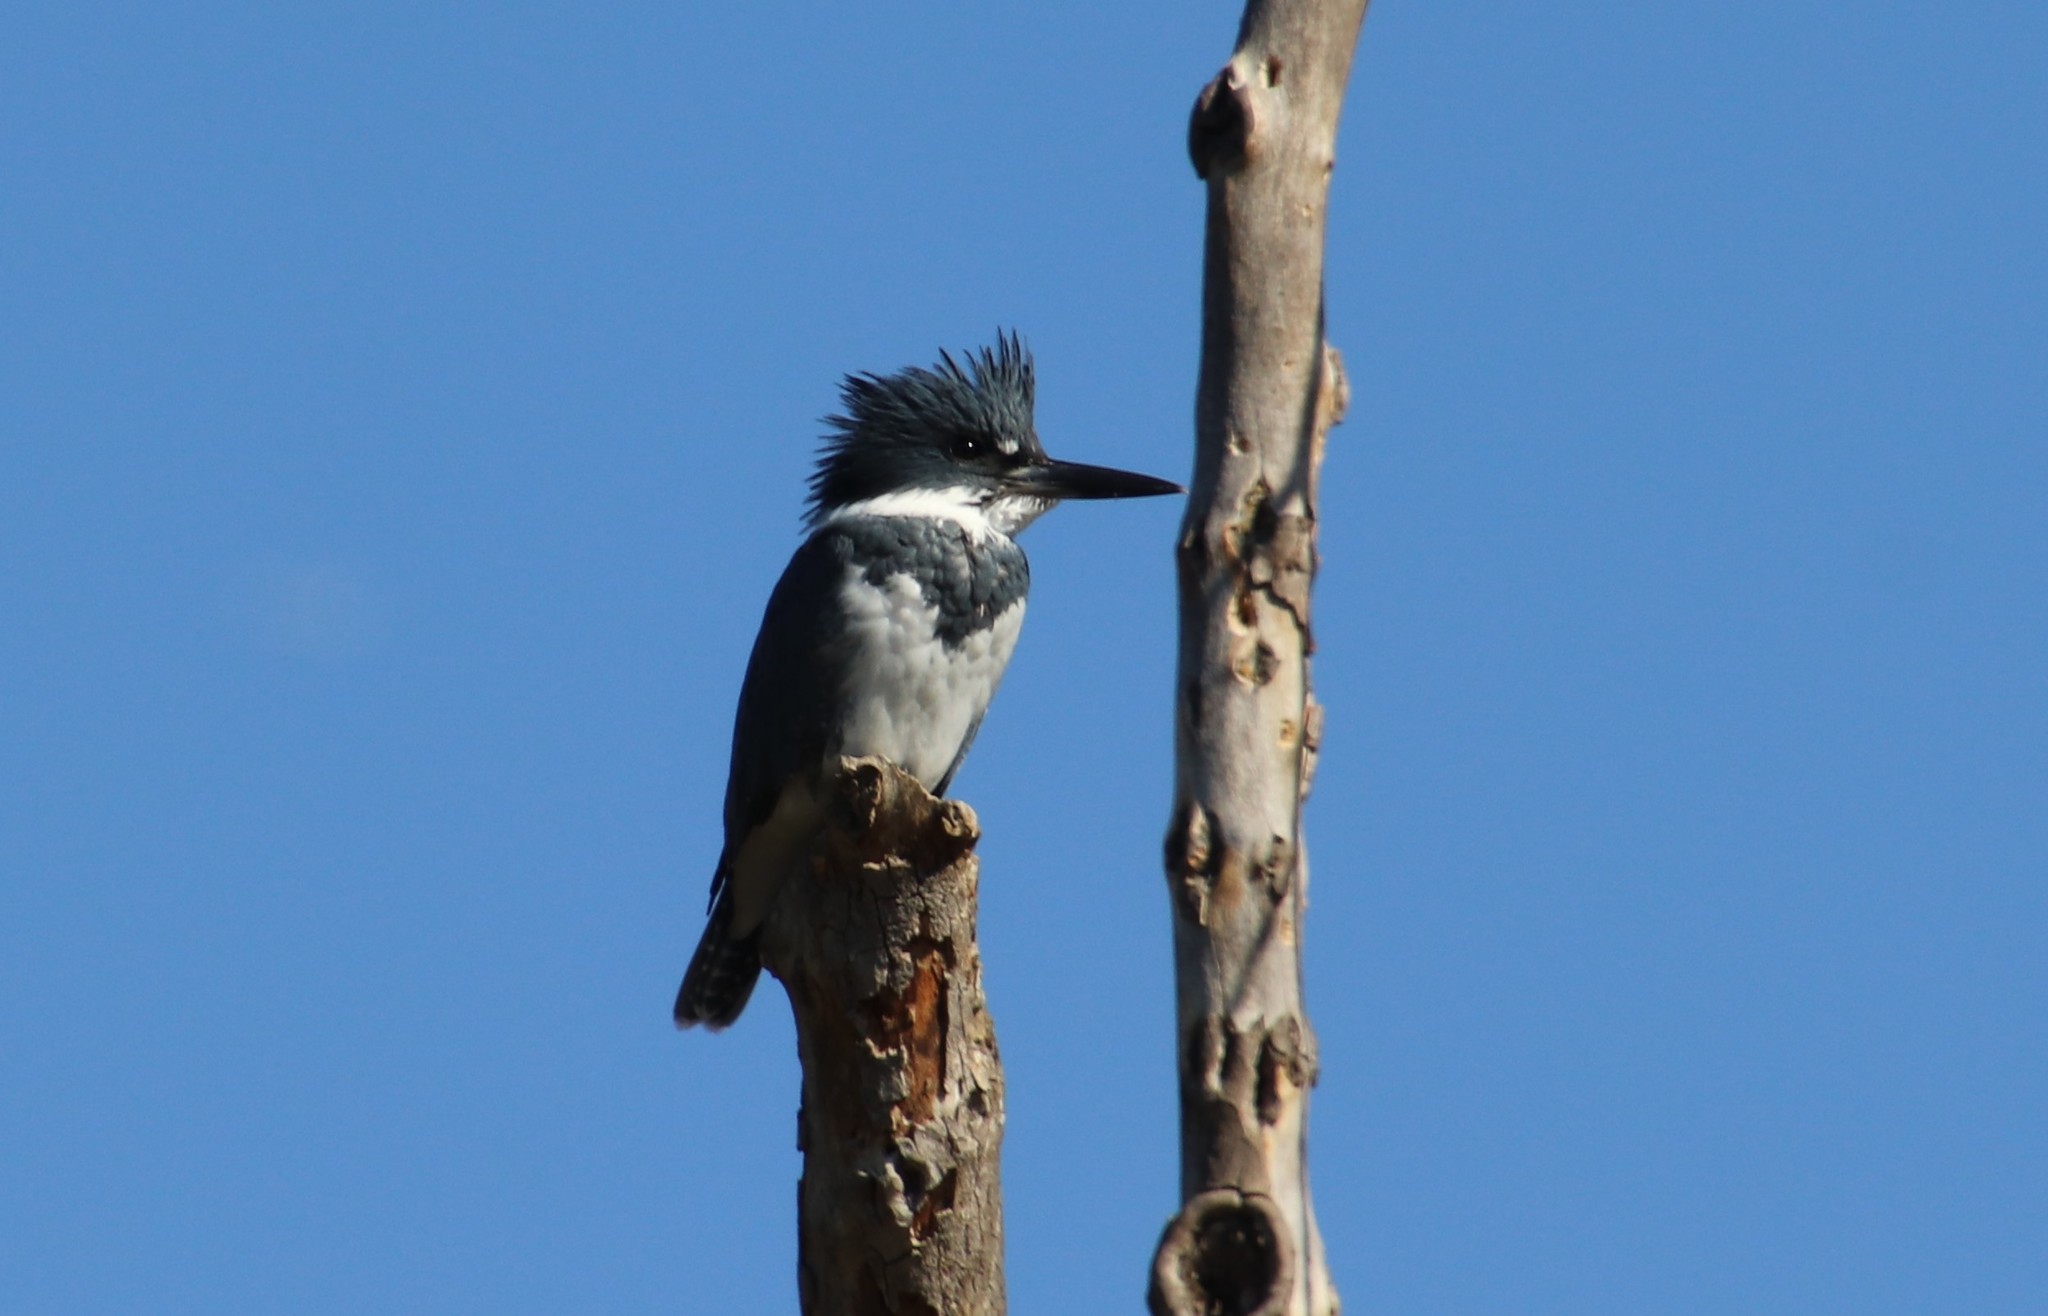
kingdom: Animalia
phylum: Chordata
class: Aves
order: Coraciiformes
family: Alcedinidae
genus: Megaceryle
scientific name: Megaceryle alcyon
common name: Belted kingfisher
